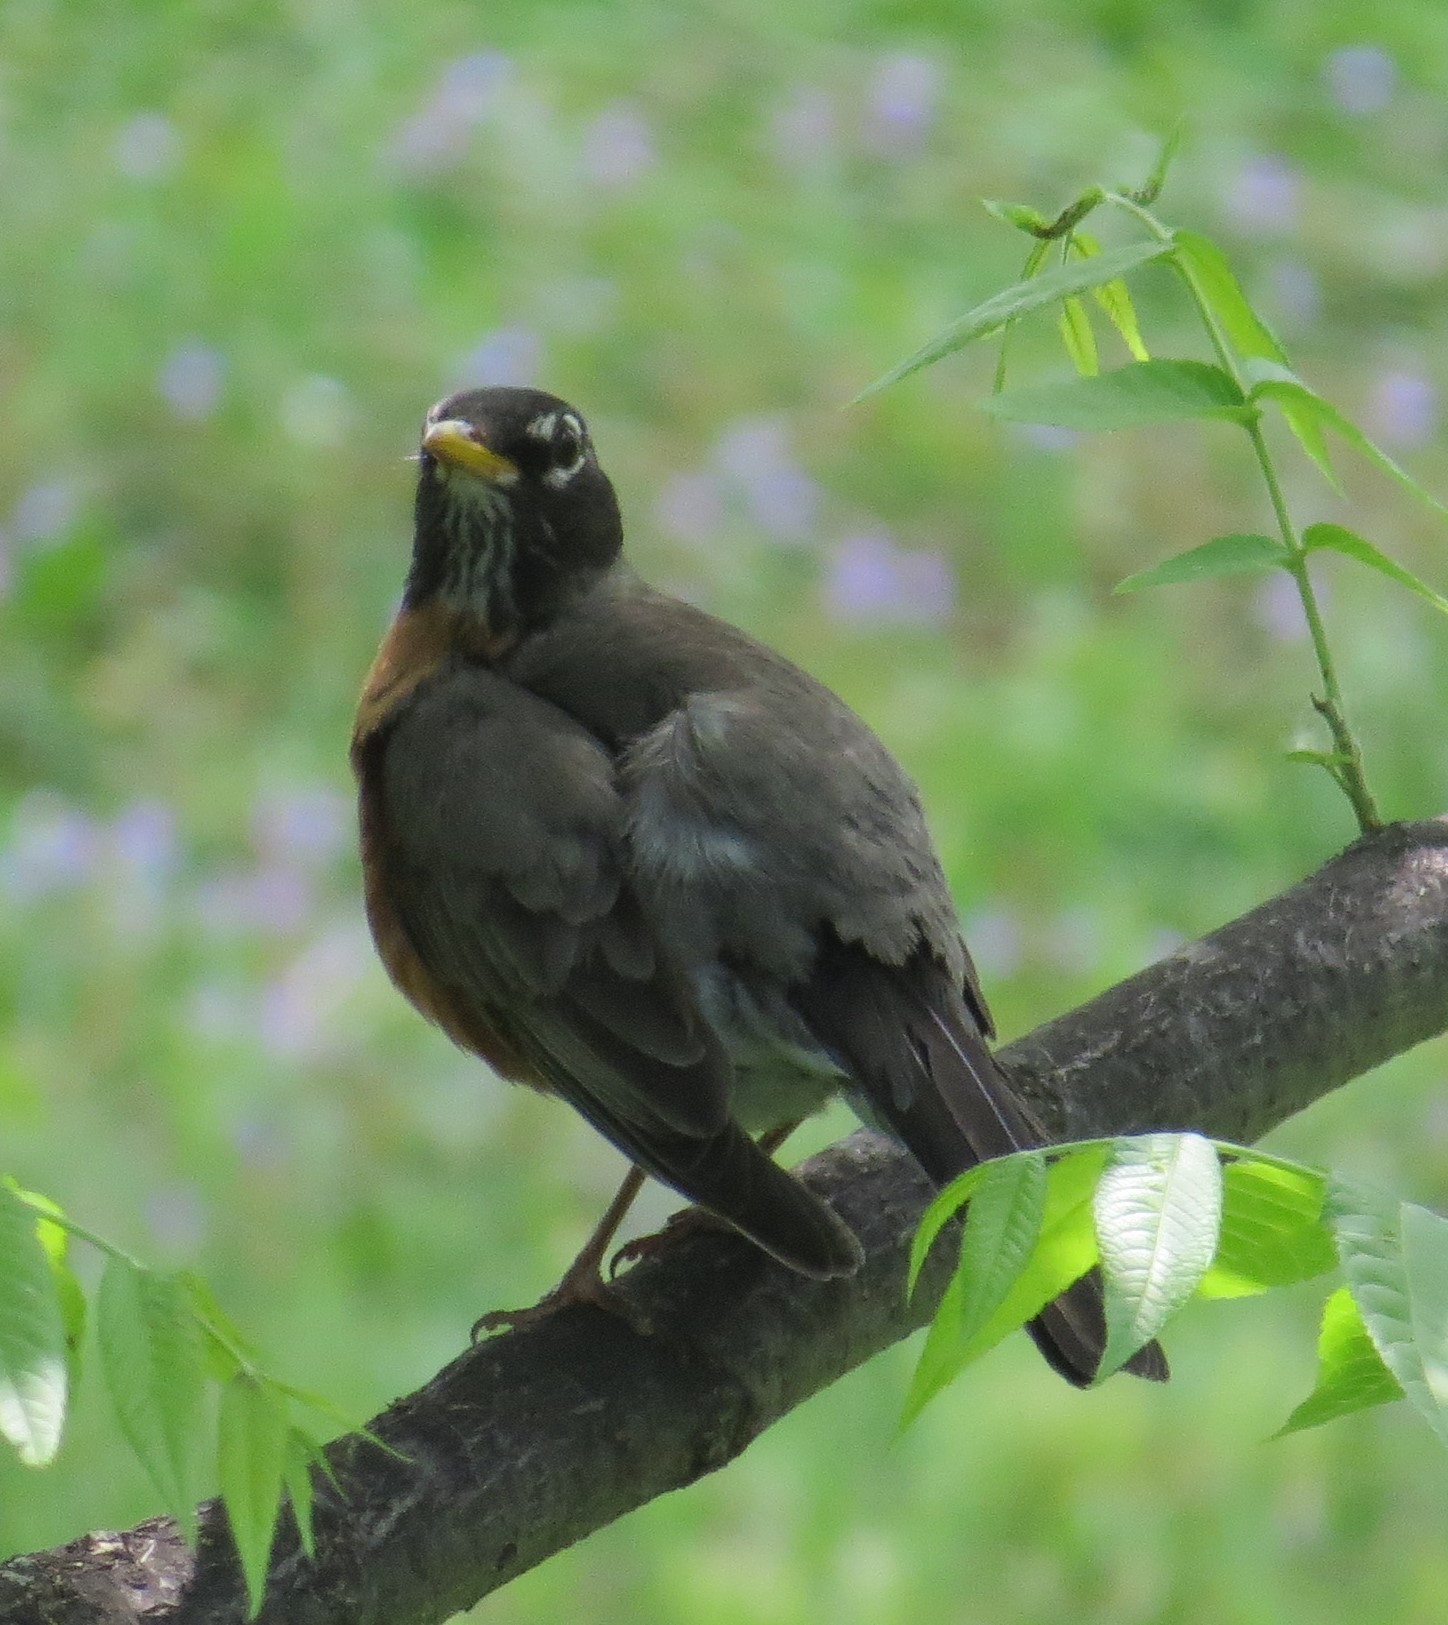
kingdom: Animalia
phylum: Chordata
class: Aves
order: Passeriformes
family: Turdidae
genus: Turdus
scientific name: Turdus migratorius
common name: American robin
